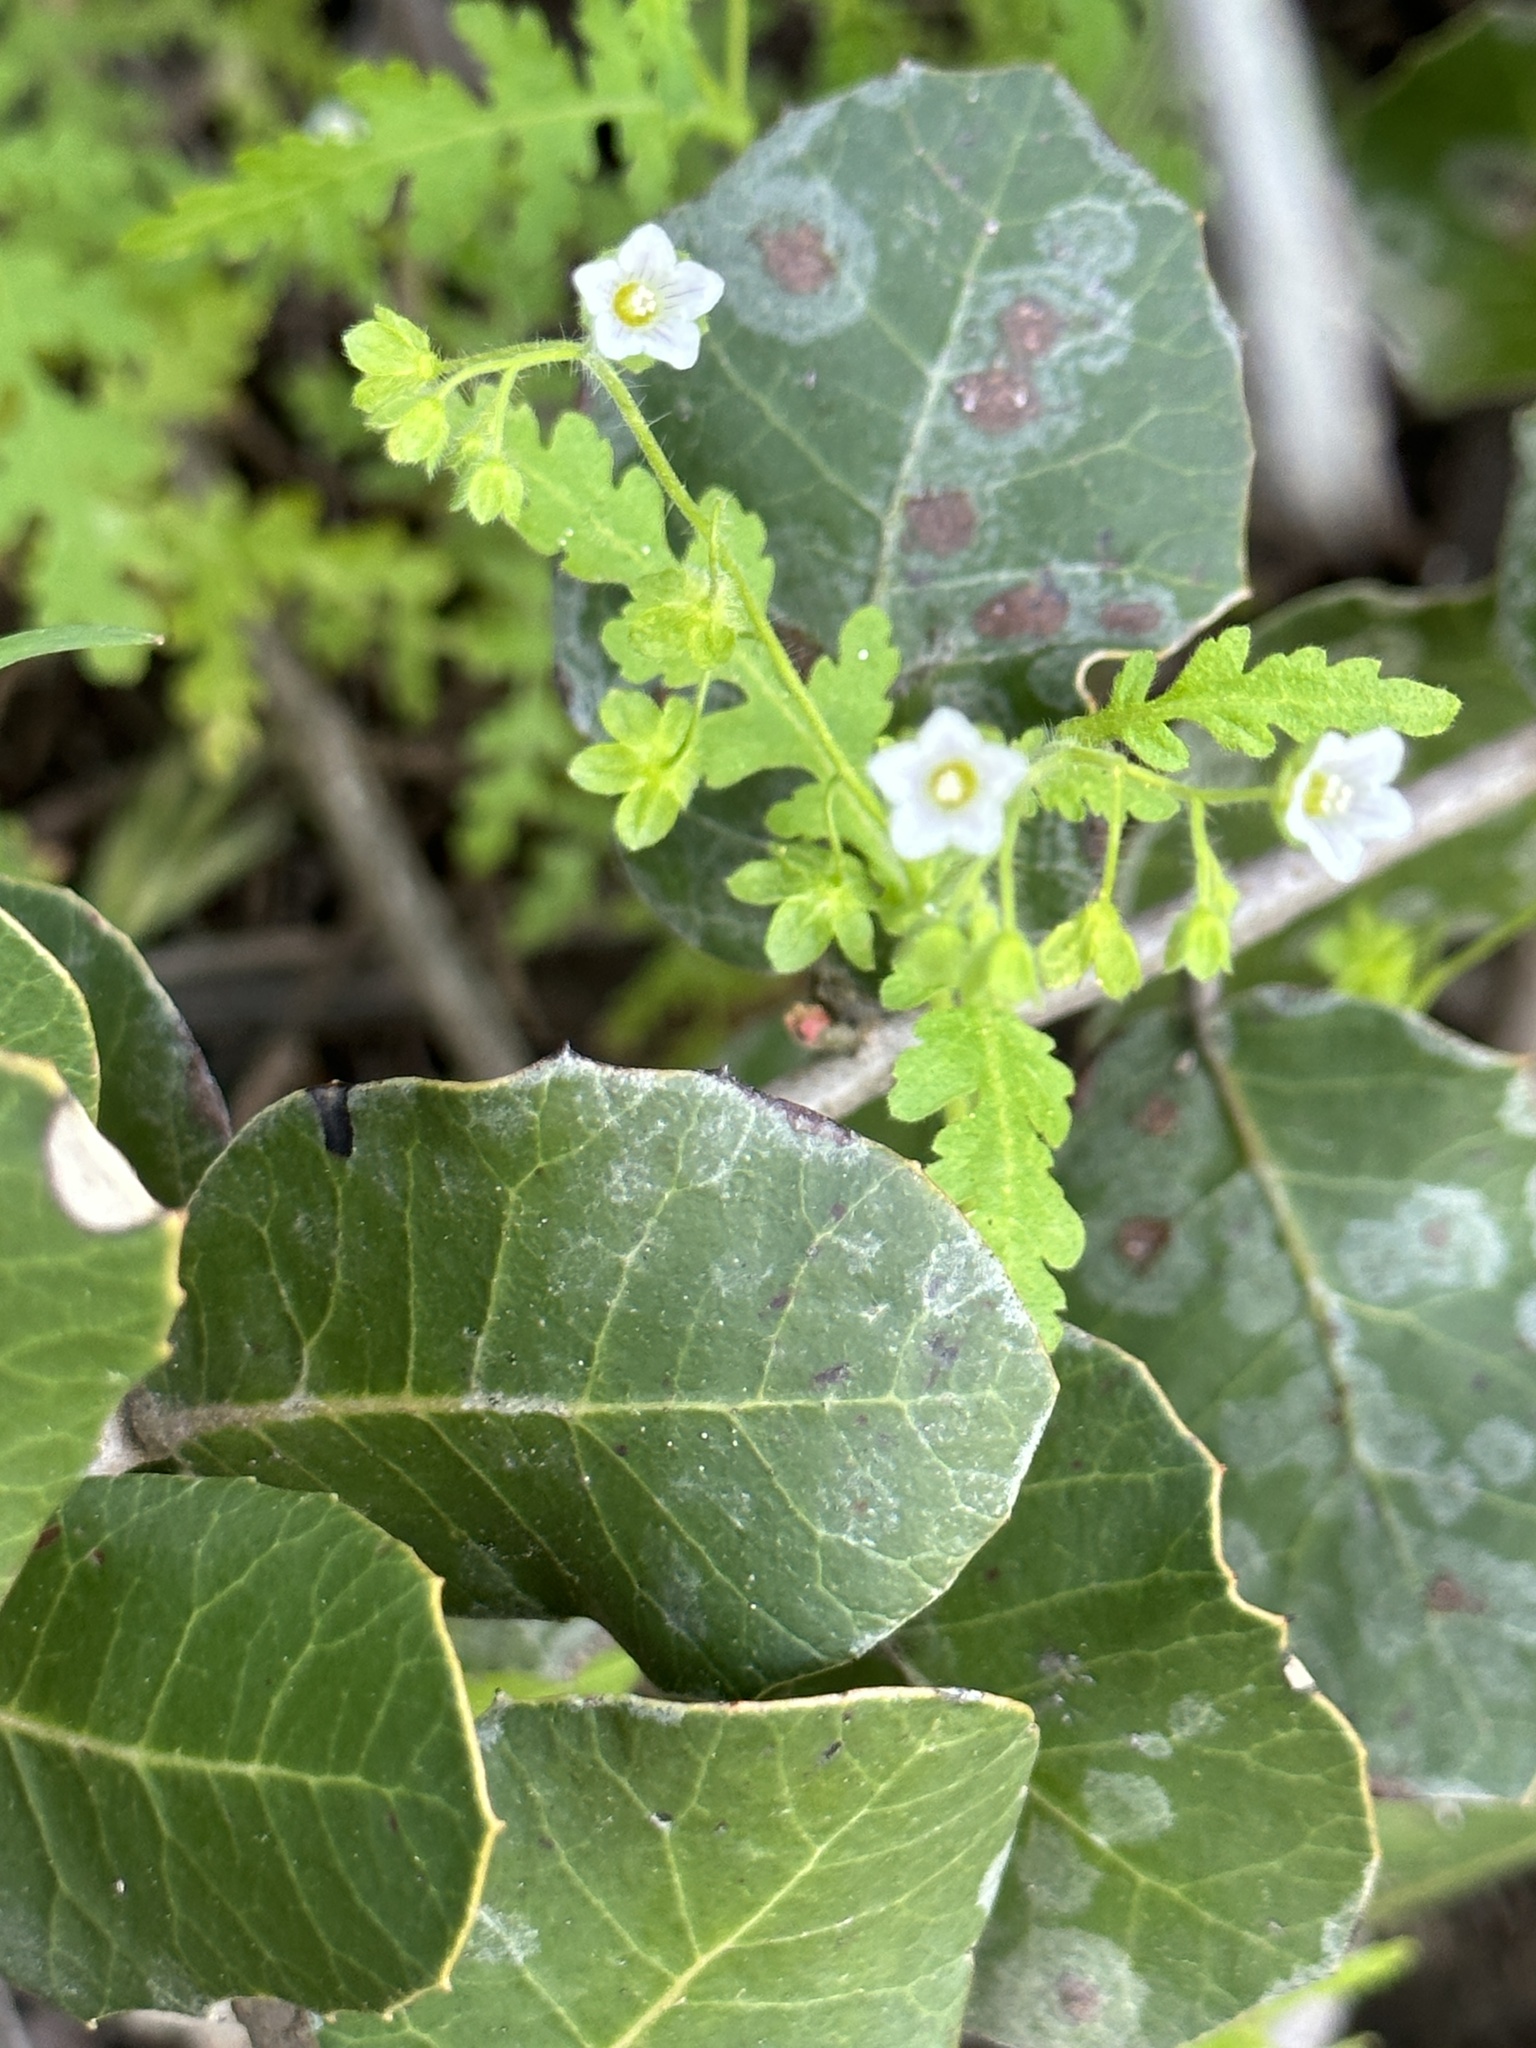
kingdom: Plantae
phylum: Tracheophyta
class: Magnoliopsida
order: Boraginales
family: Hydrophyllaceae
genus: Eucrypta
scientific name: Eucrypta chrysanthemifolia
